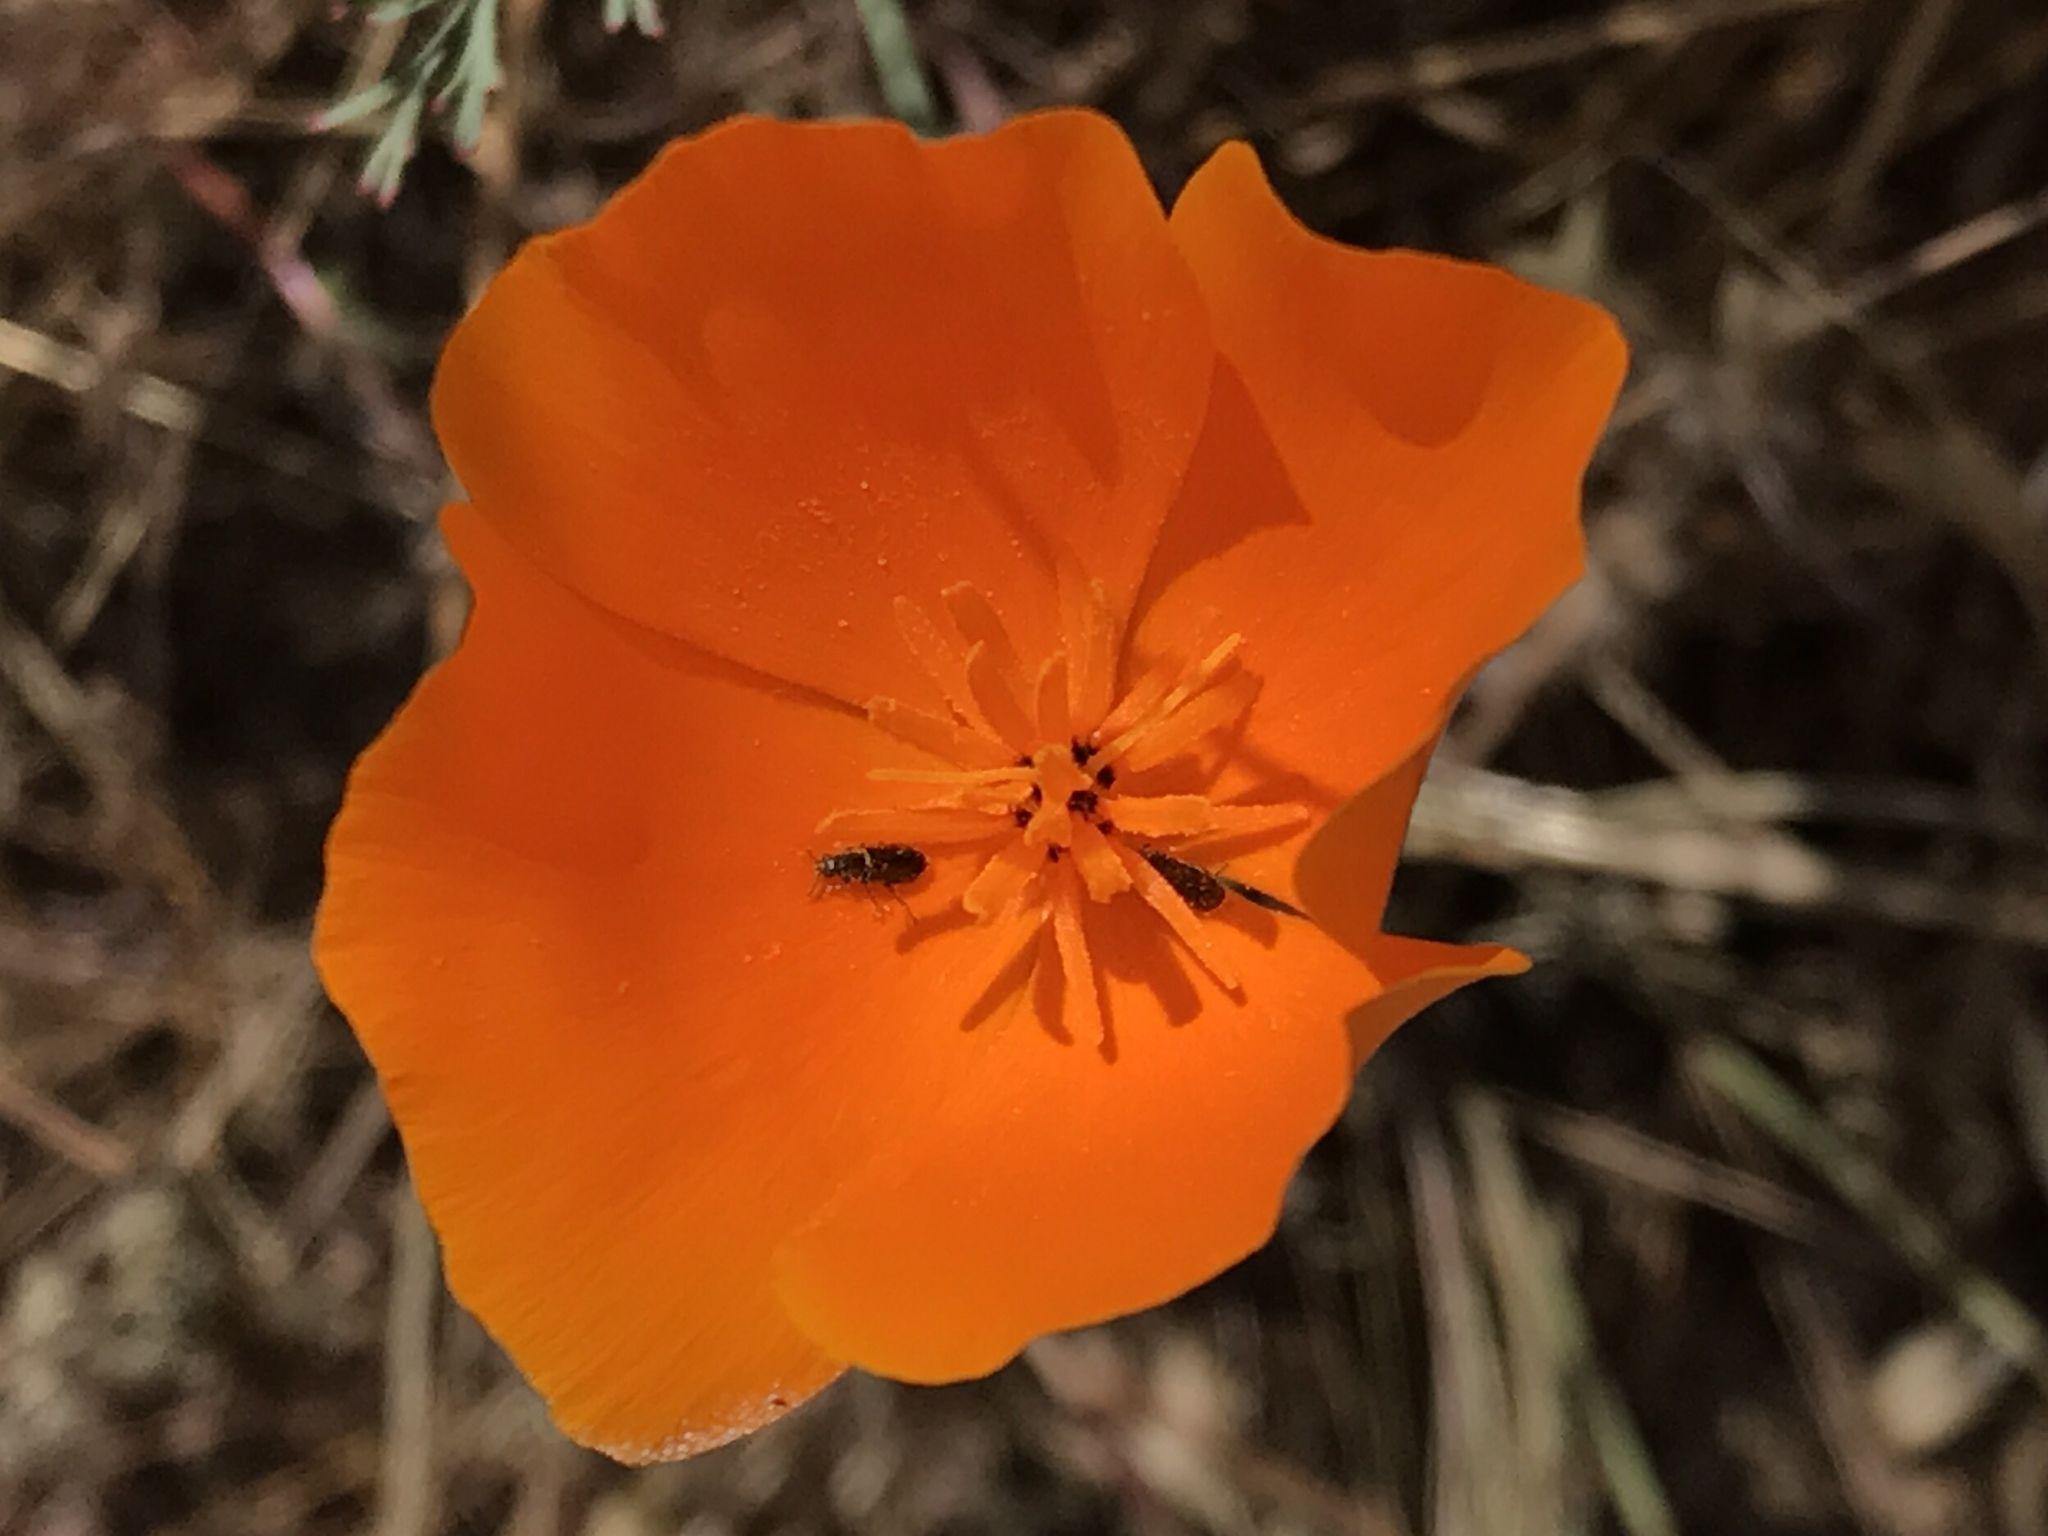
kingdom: Plantae
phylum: Tracheophyta
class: Magnoliopsida
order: Ranunculales
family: Papaveraceae
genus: Eschscholzia
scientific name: Eschscholzia californica
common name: California poppy
